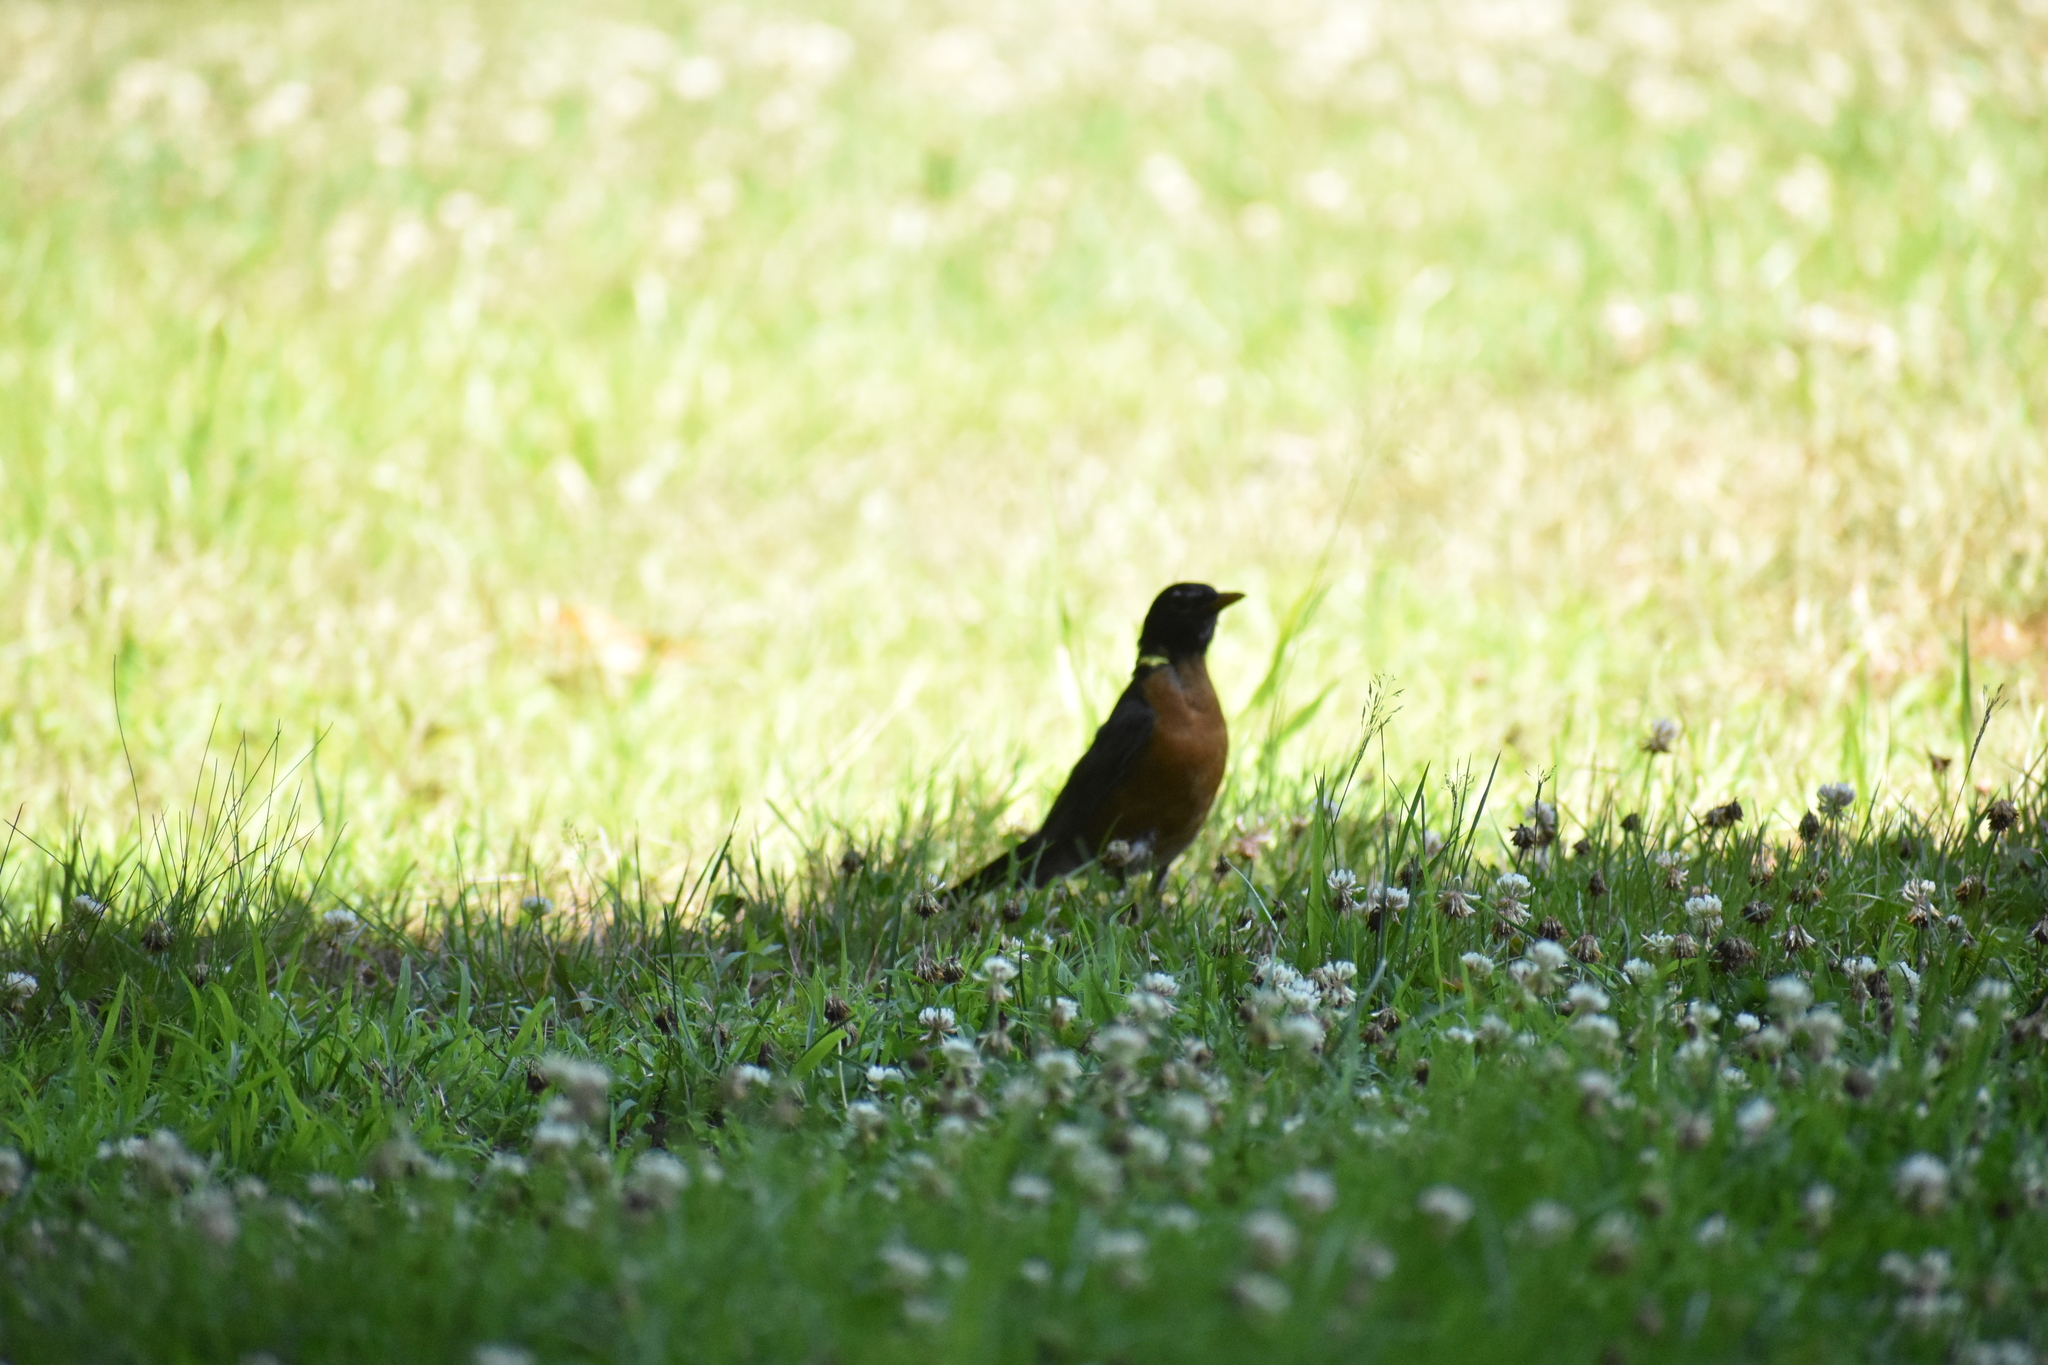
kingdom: Animalia
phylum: Chordata
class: Aves
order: Passeriformes
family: Turdidae
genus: Turdus
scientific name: Turdus migratorius
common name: American robin
